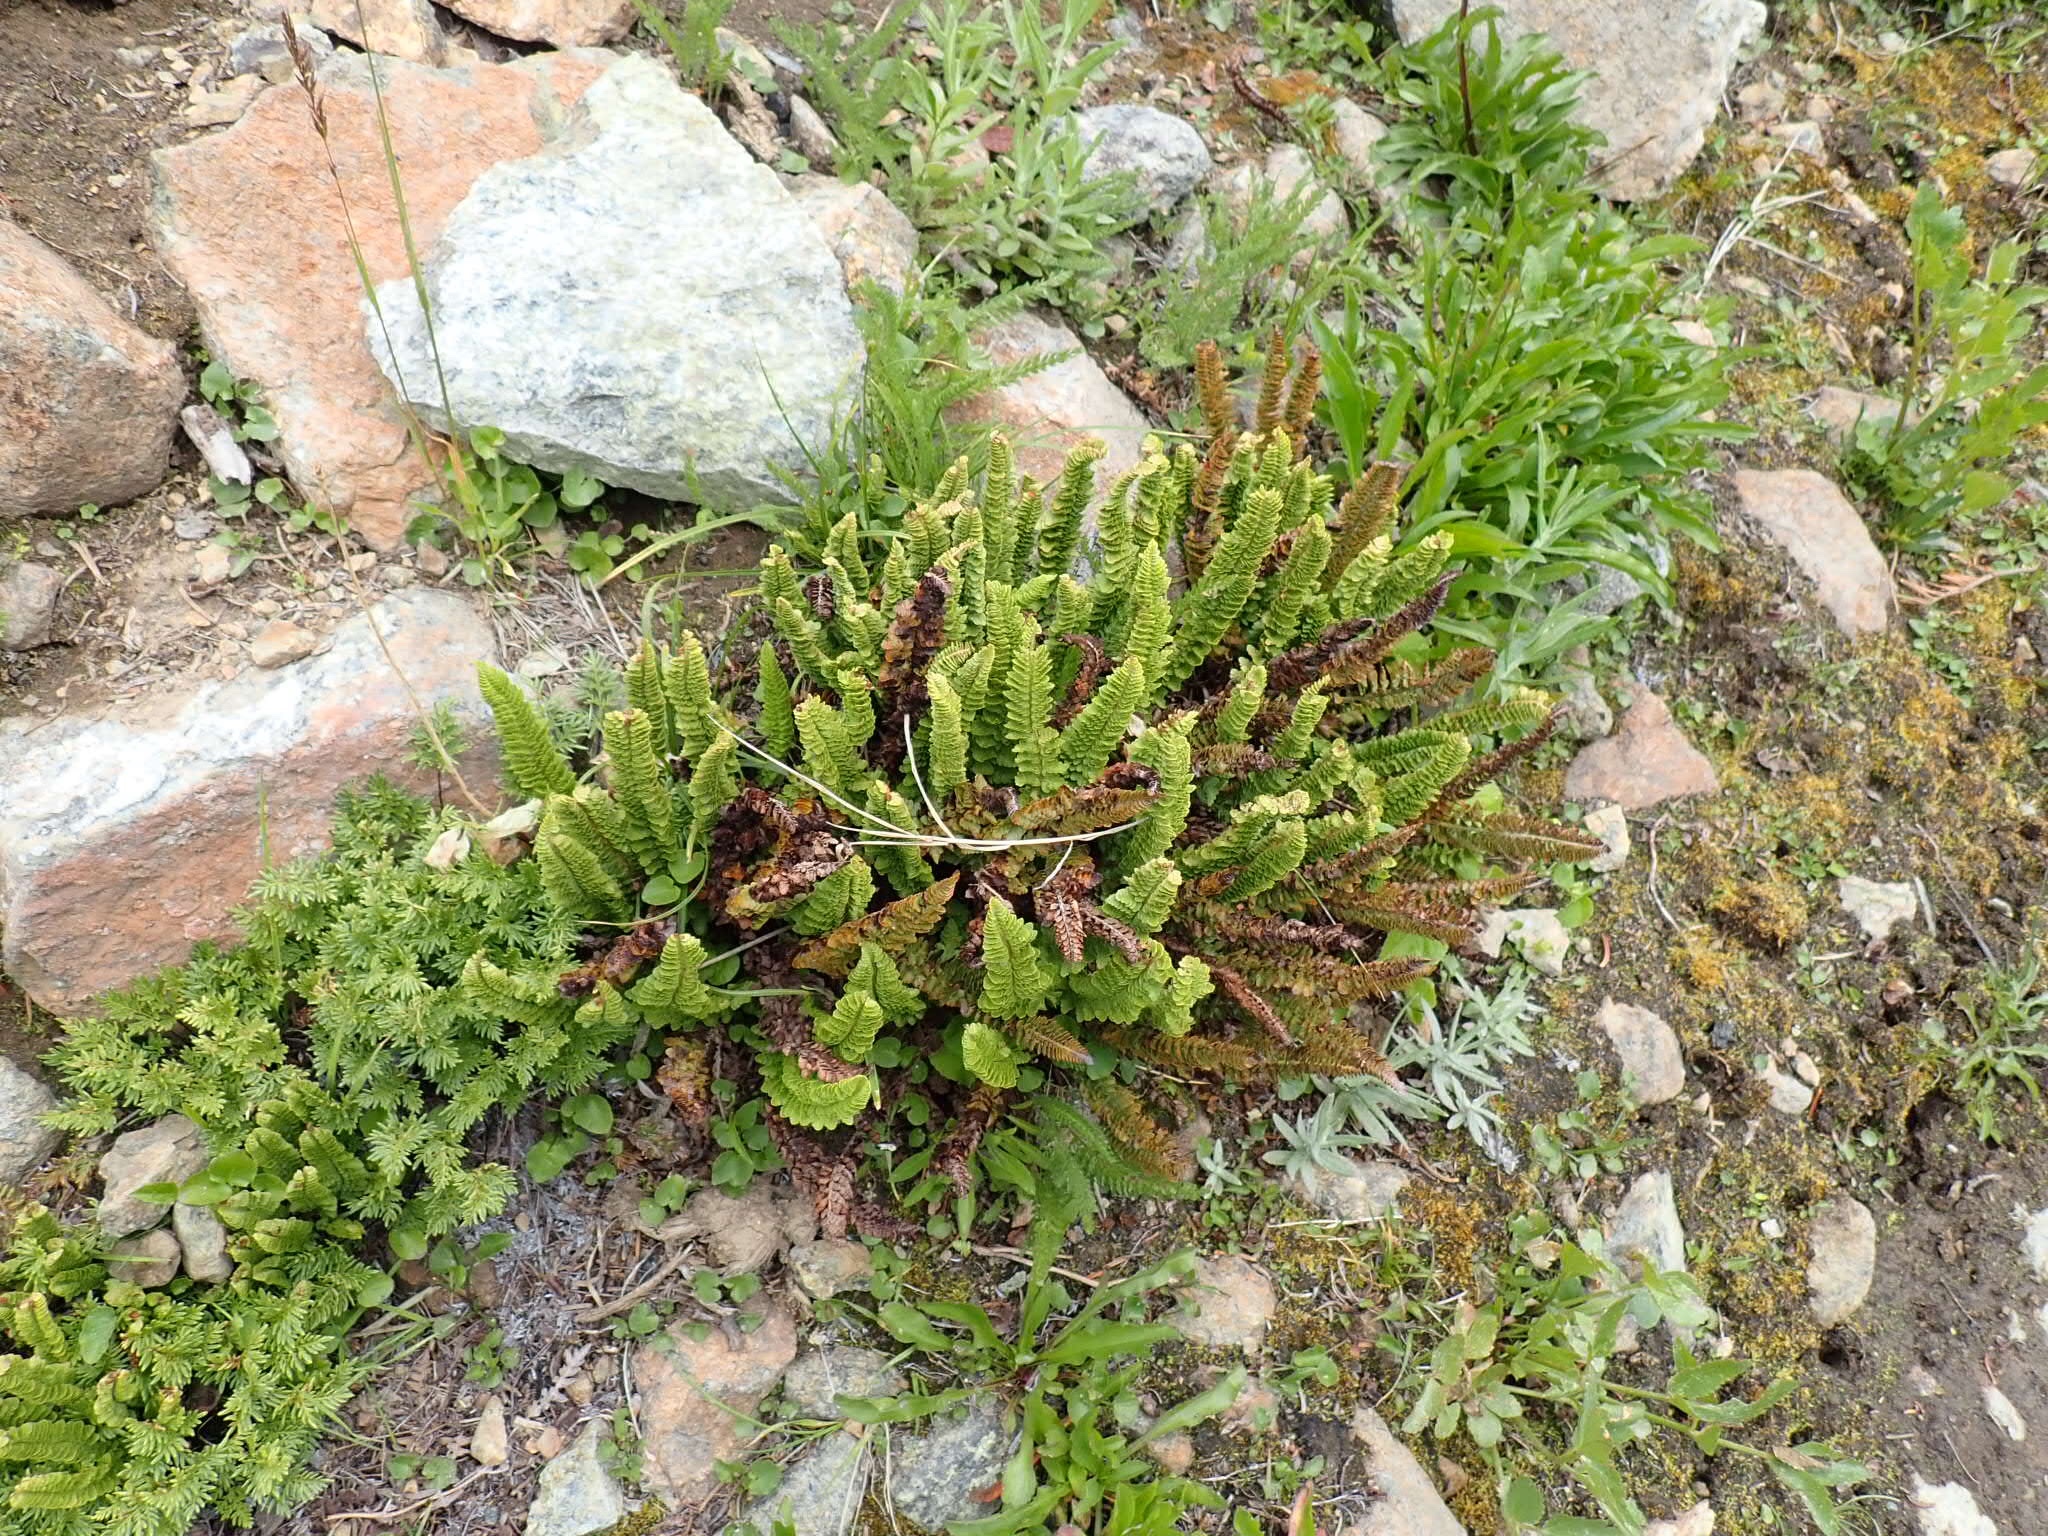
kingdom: Plantae
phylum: Tracheophyta
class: Polypodiopsida
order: Polypodiales
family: Dryopteridaceae
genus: Polystichum
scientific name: Polystichum lemmonii
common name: Lemmon's holly fern
